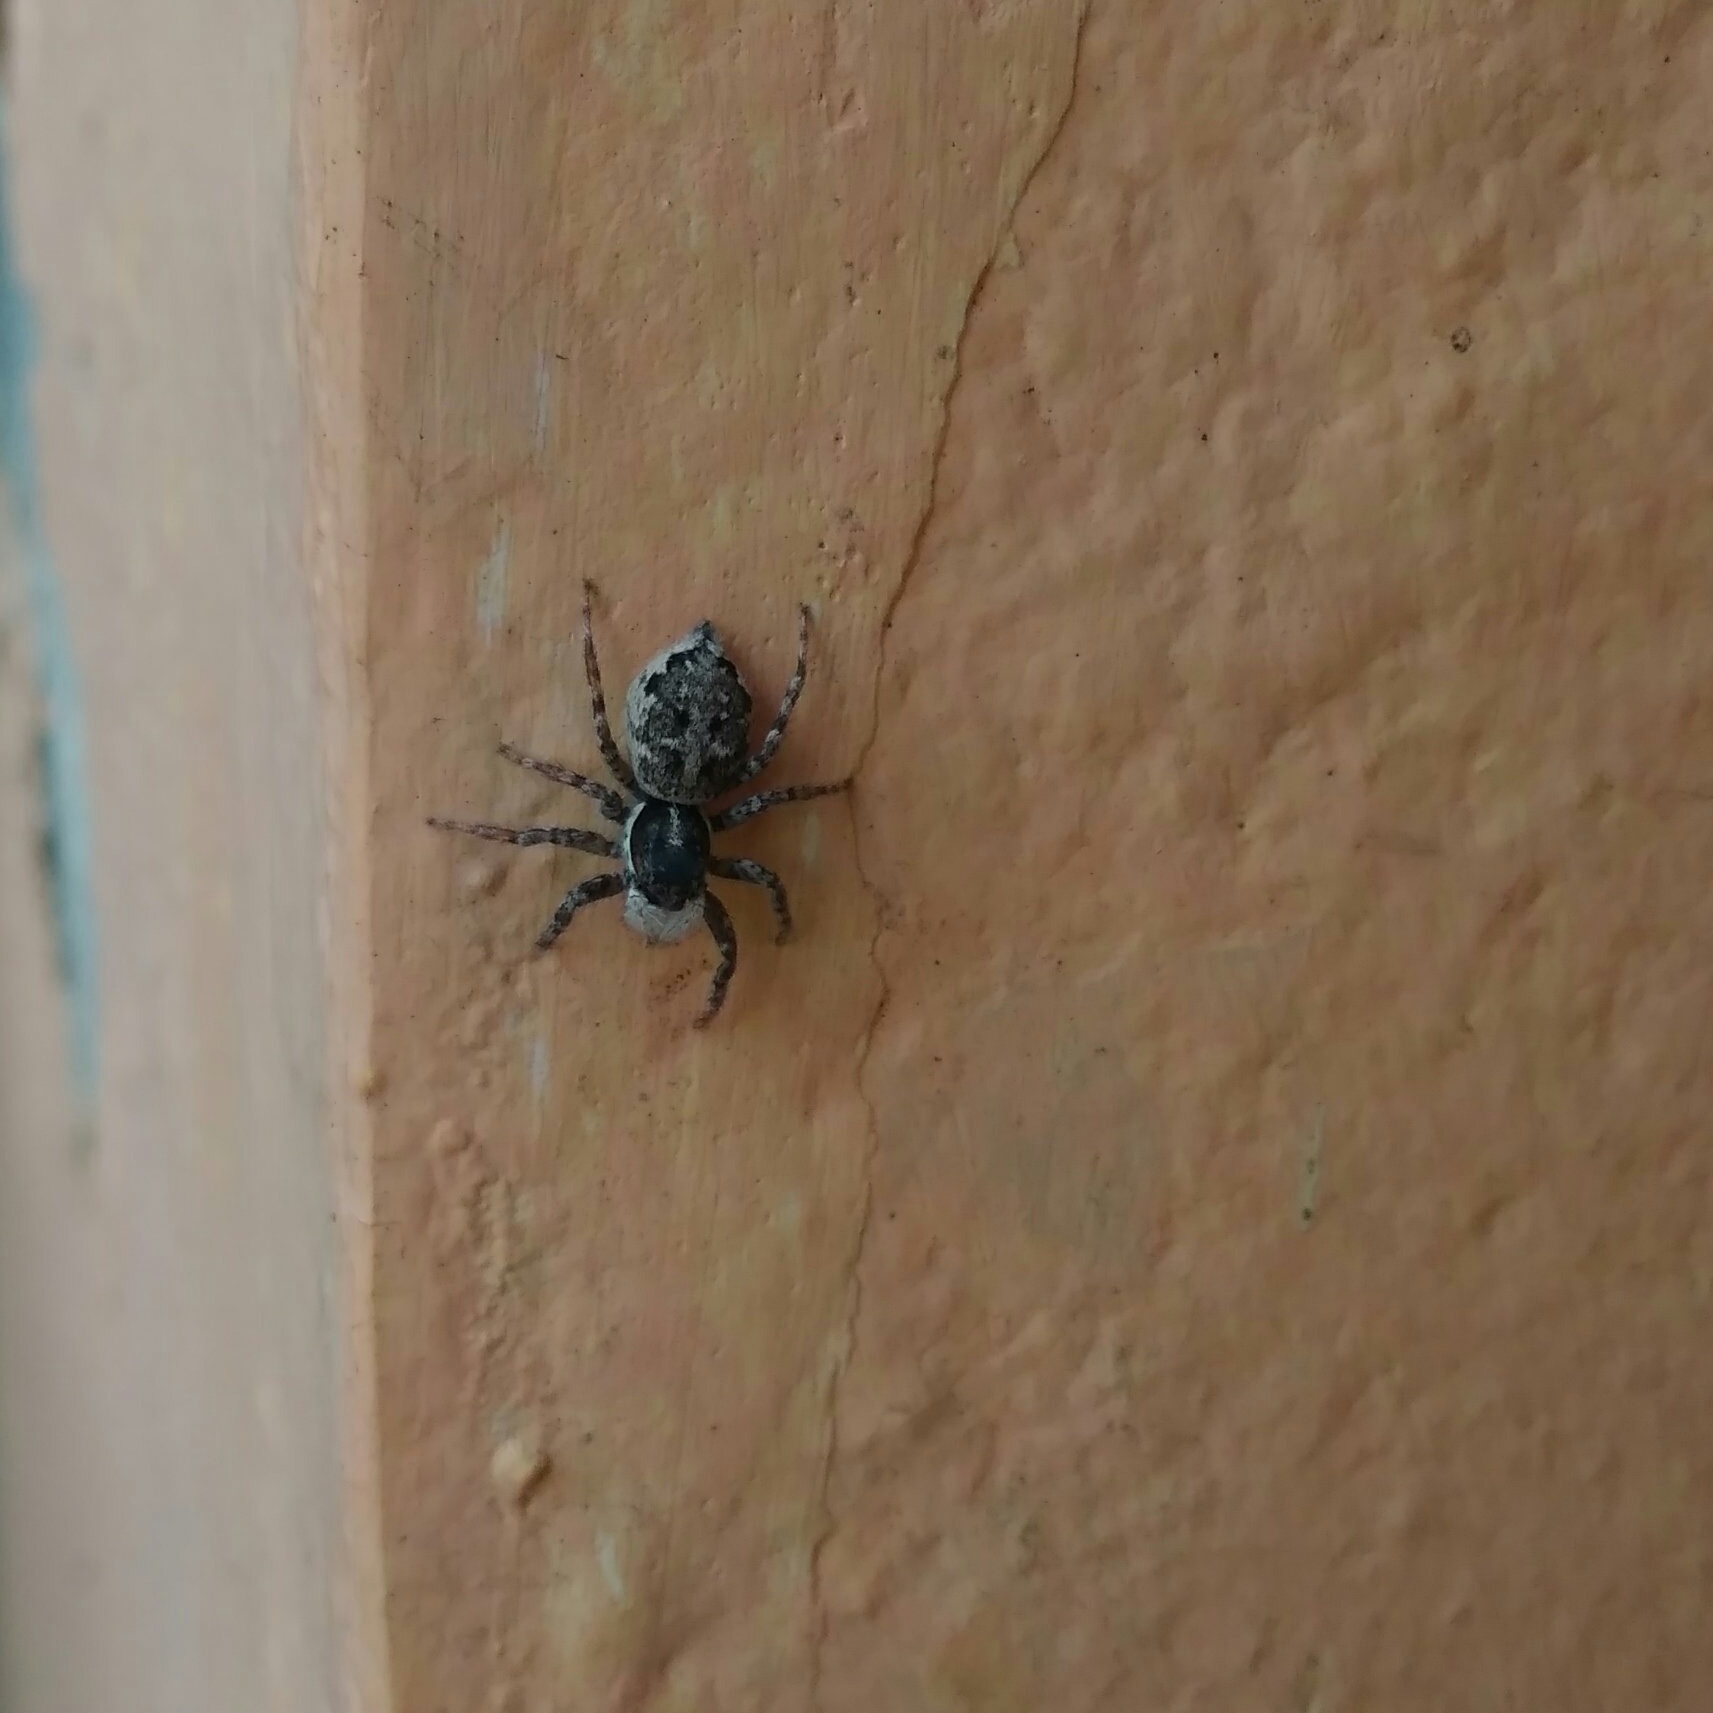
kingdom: Animalia
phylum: Arthropoda
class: Arachnida
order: Araneae
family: Salticidae
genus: Menemerus
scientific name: Menemerus semilimbatus
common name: Jumping spider
